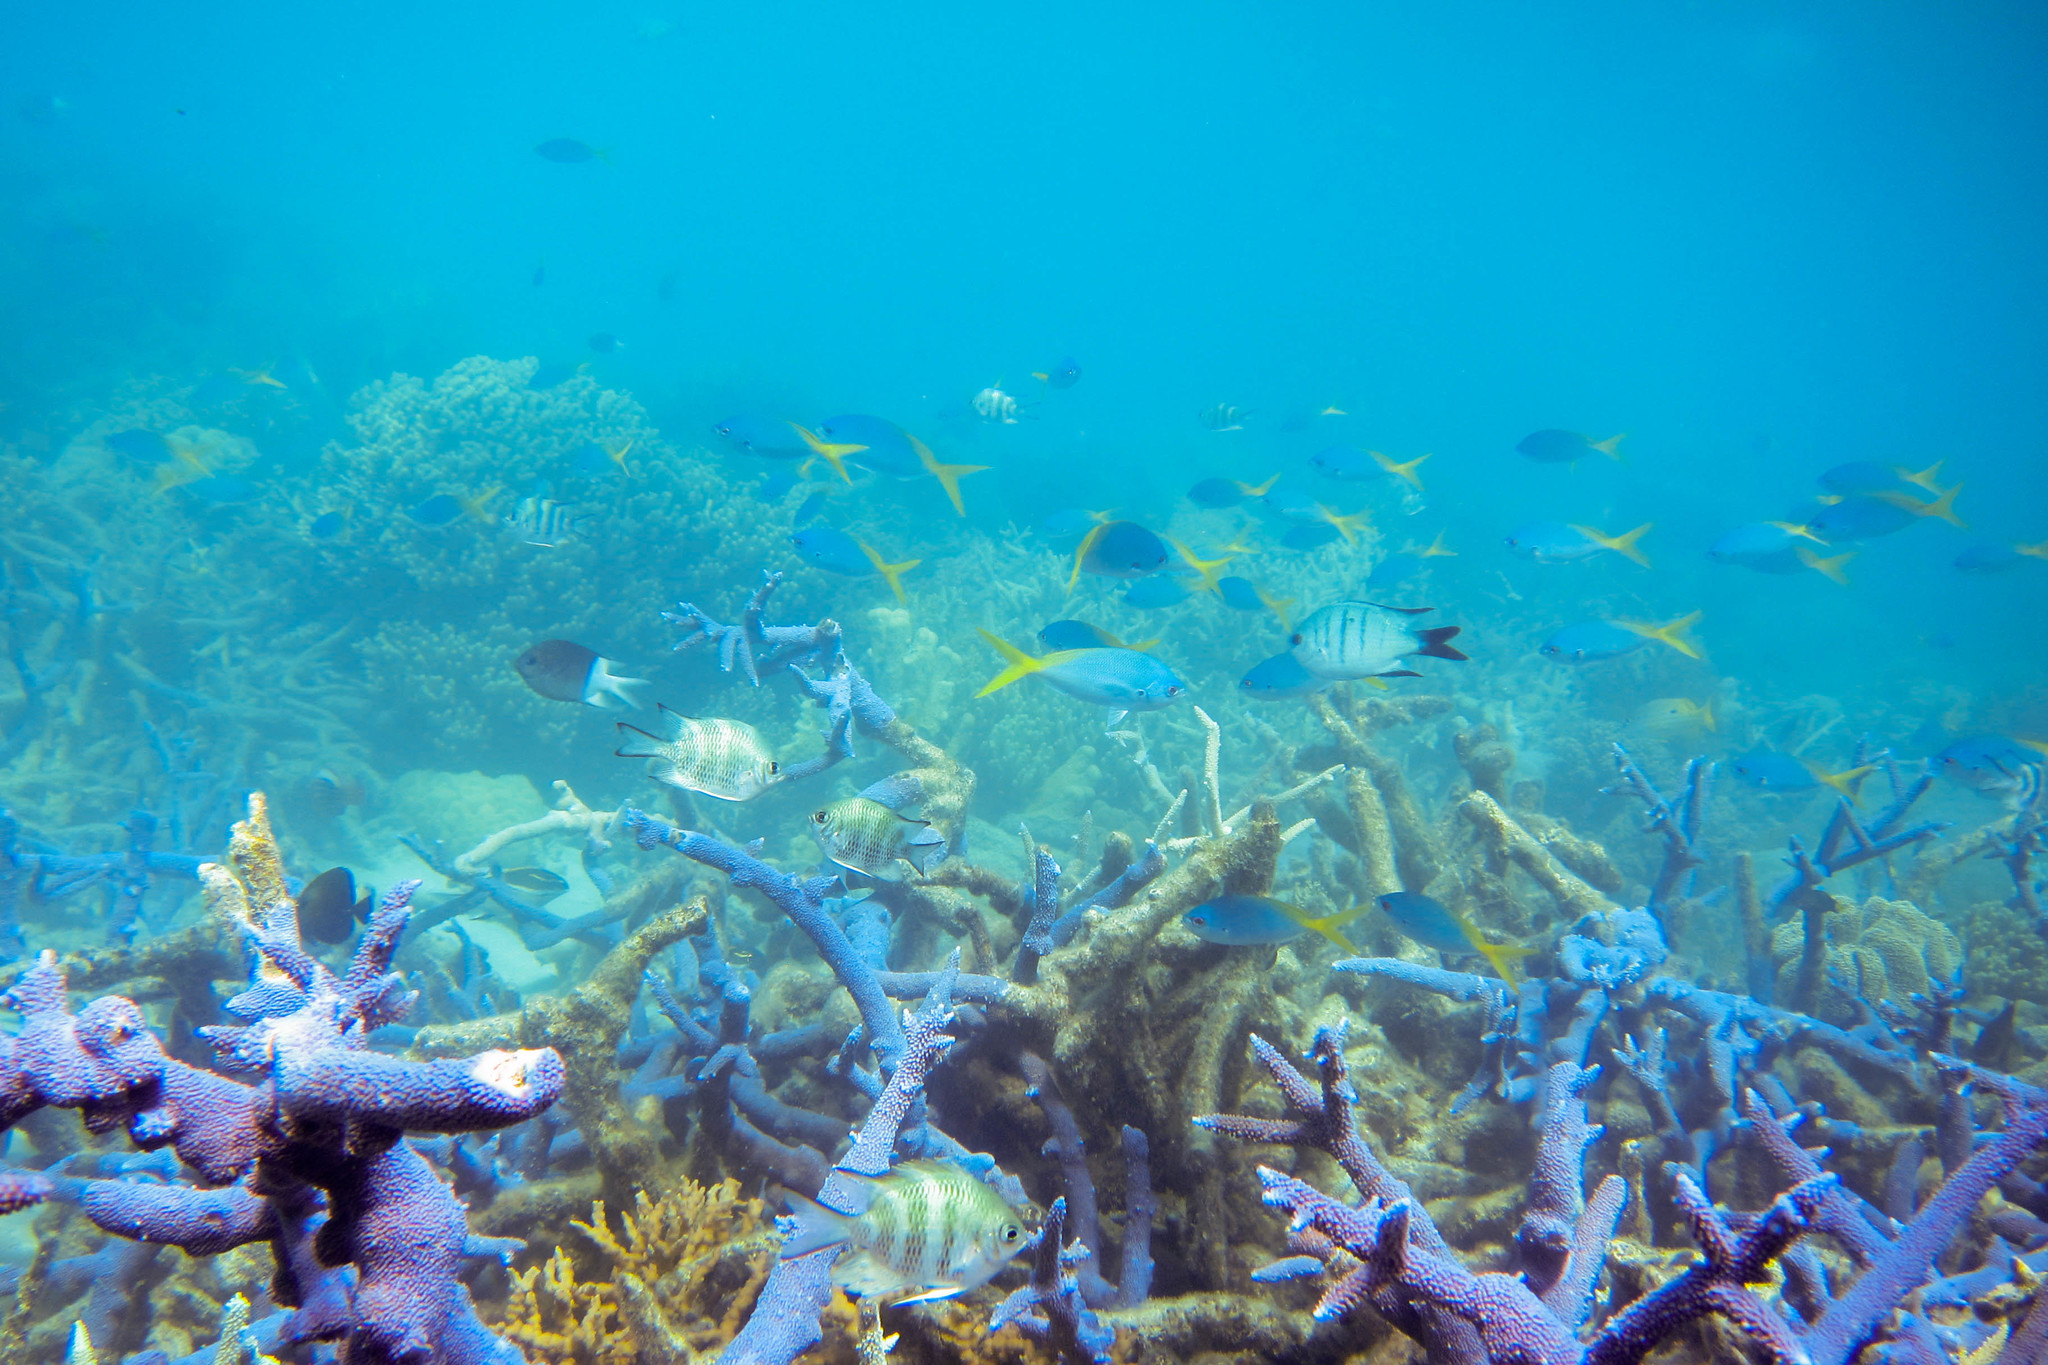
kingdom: Animalia
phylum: Chordata
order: Perciformes
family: Pomacentridae
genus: Acanthochromis
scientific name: Acanthochromis polyacanthus
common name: Spiny chromis
